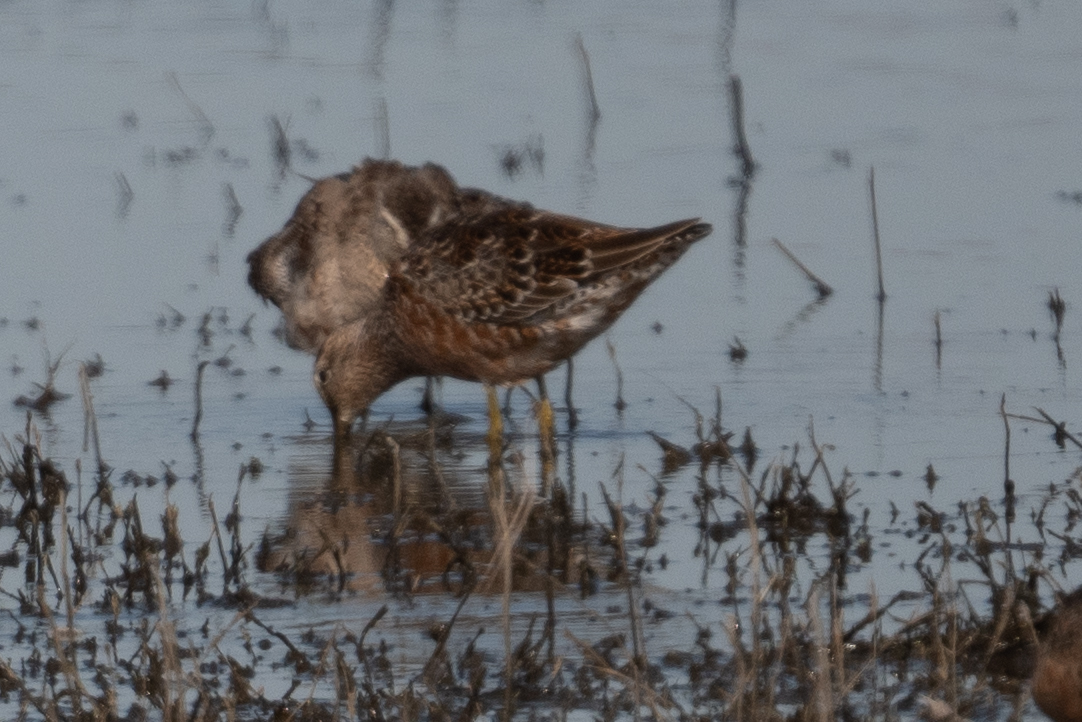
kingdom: Animalia
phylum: Chordata
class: Aves
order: Charadriiformes
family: Scolopacidae
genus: Limnodromus
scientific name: Limnodromus scolopaceus
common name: Long-billed dowitcher
